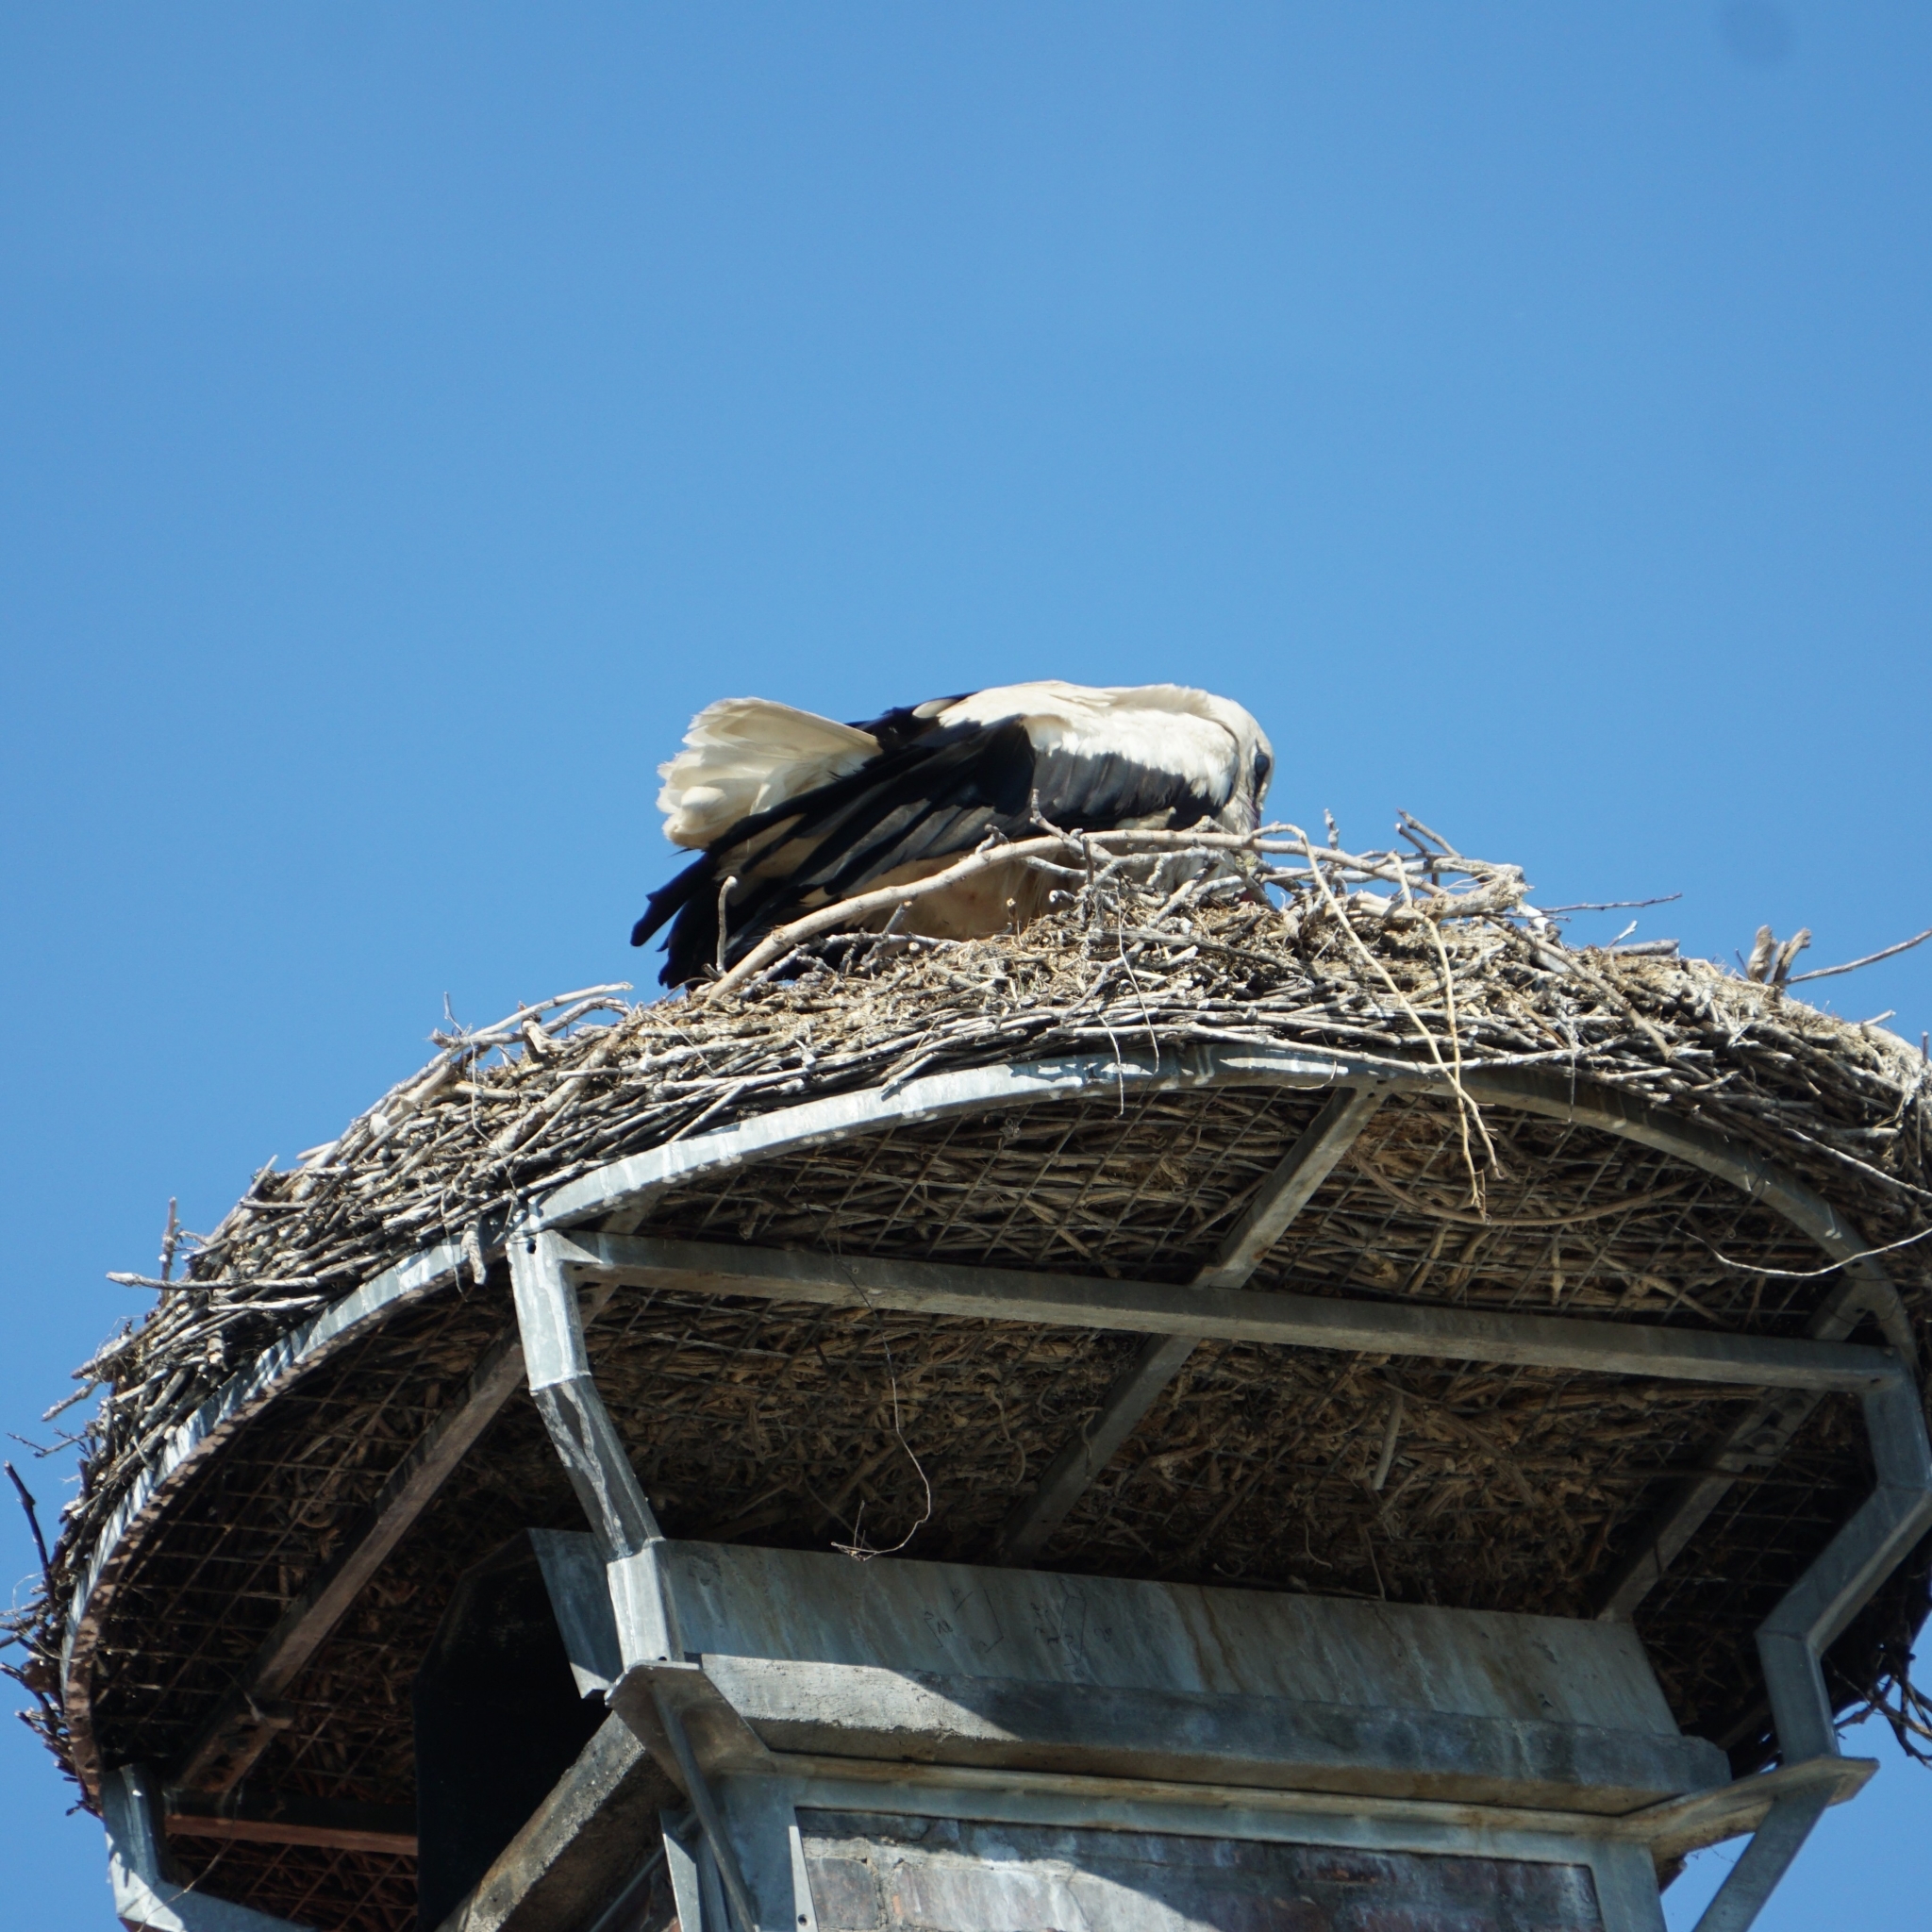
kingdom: Animalia
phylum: Chordata
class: Aves
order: Ciconiiformes
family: Ciconiidae
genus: Ciconia
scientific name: Ciconia ciconia
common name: White stork
